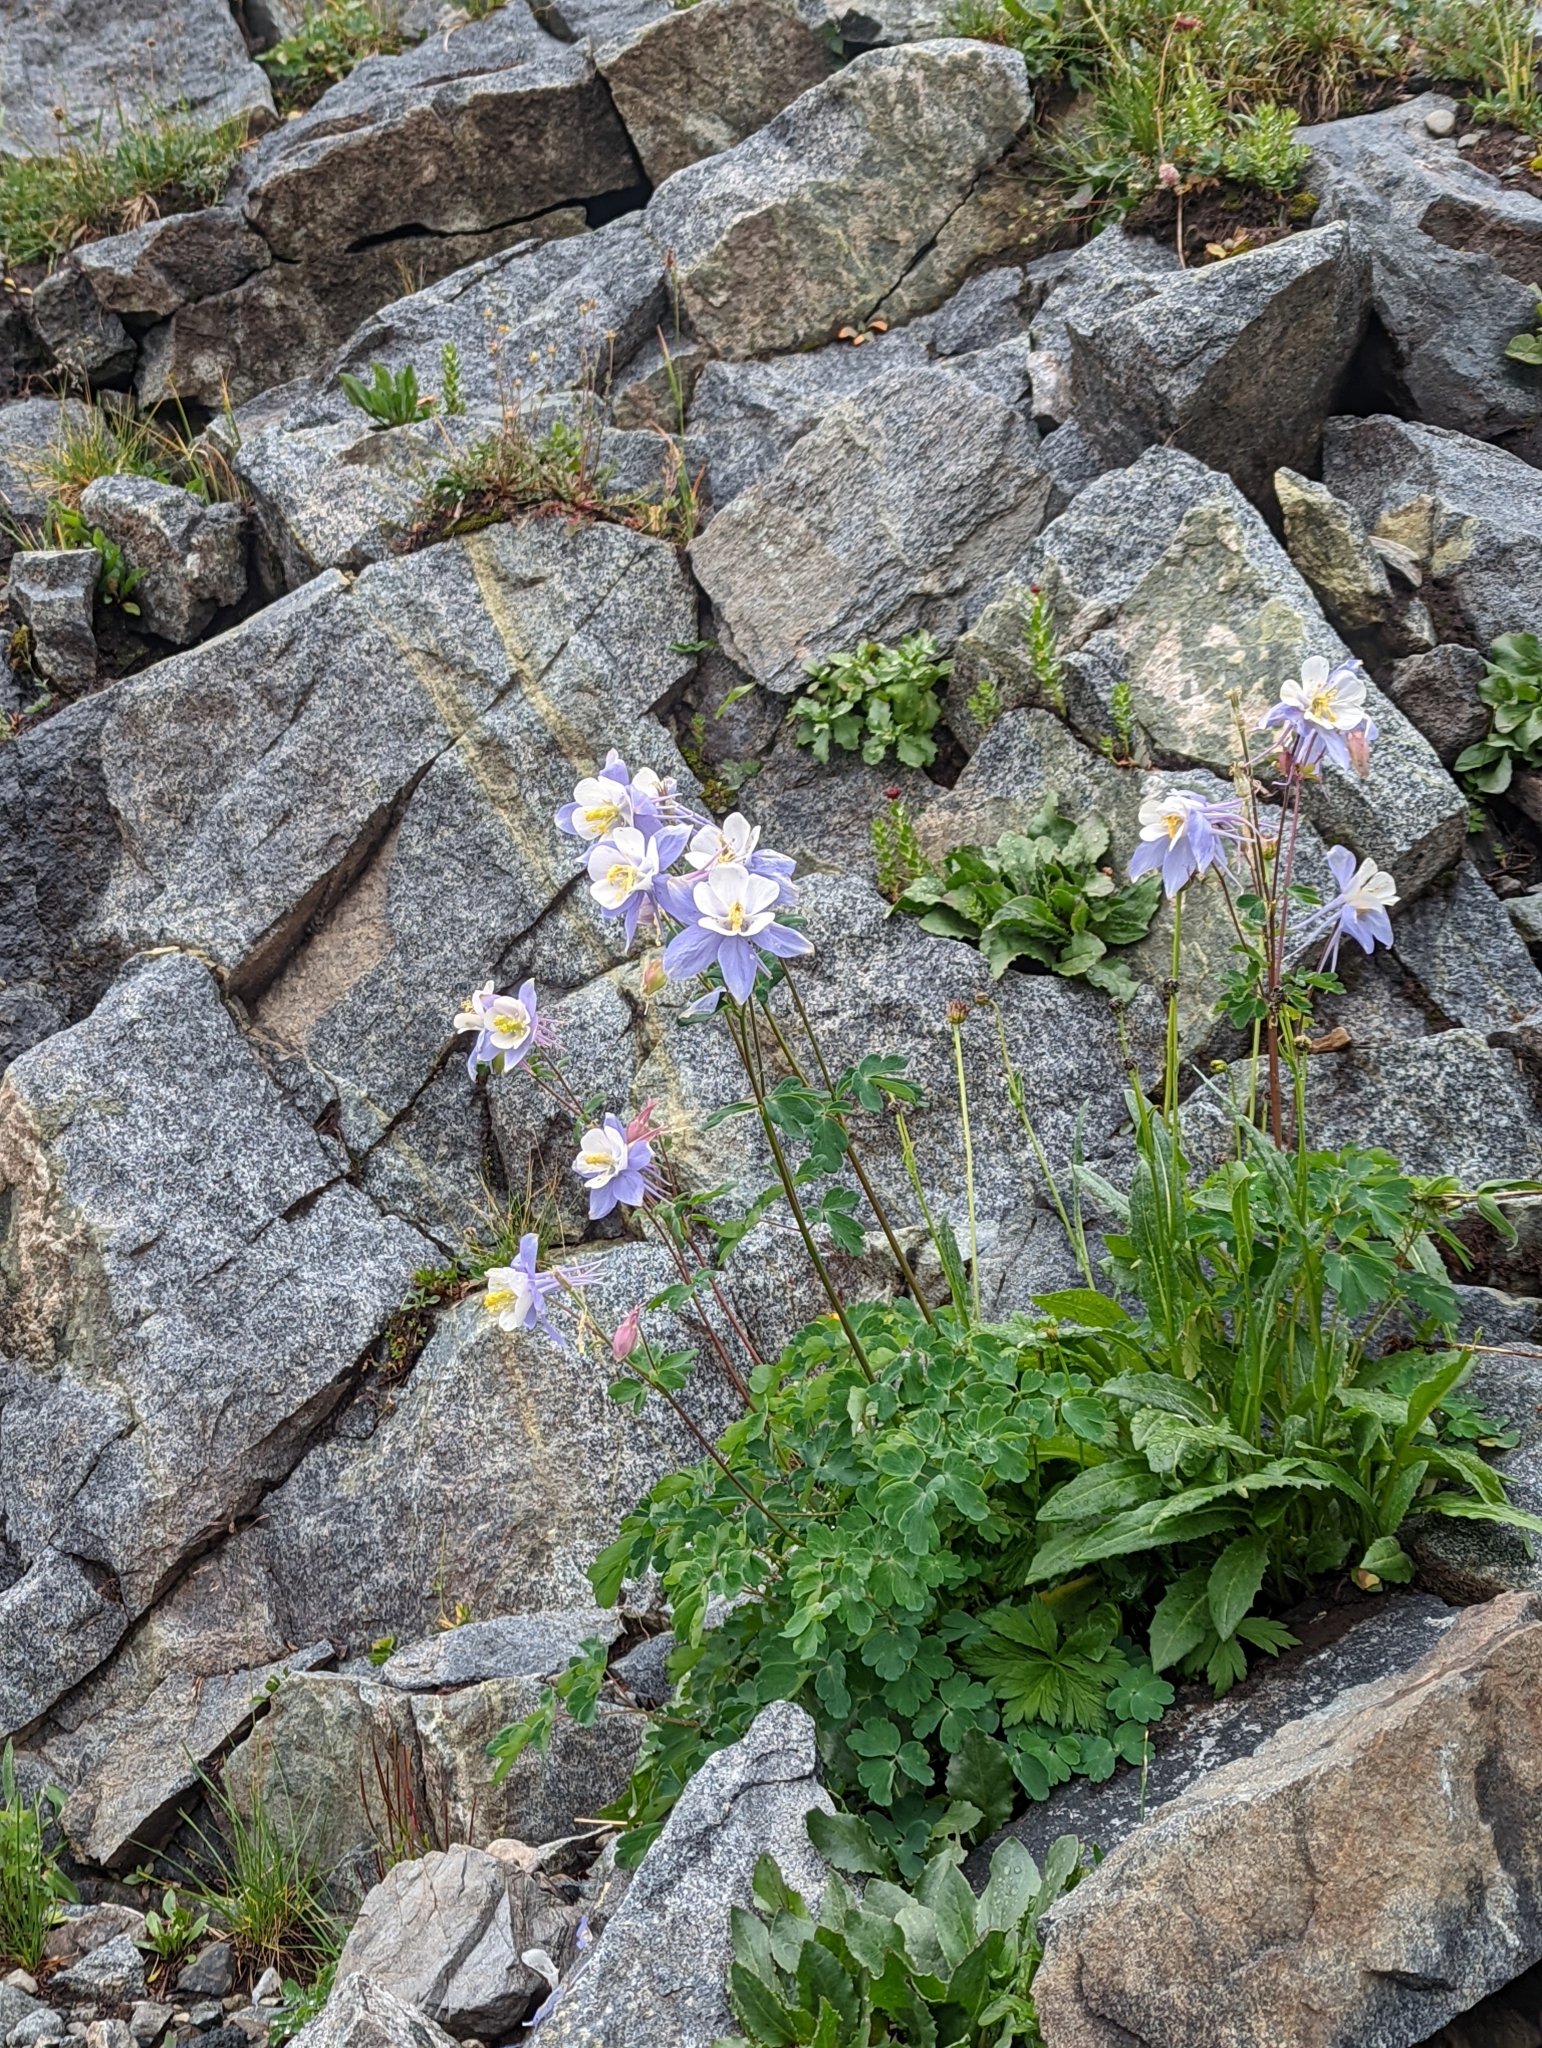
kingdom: Plantae
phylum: Tracheophyta
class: Magnoliopsida
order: Ranunculales
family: Ranunculaceae
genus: Aquilegia
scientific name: Aquilegia coerulea
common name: Rocky mountain columbine
